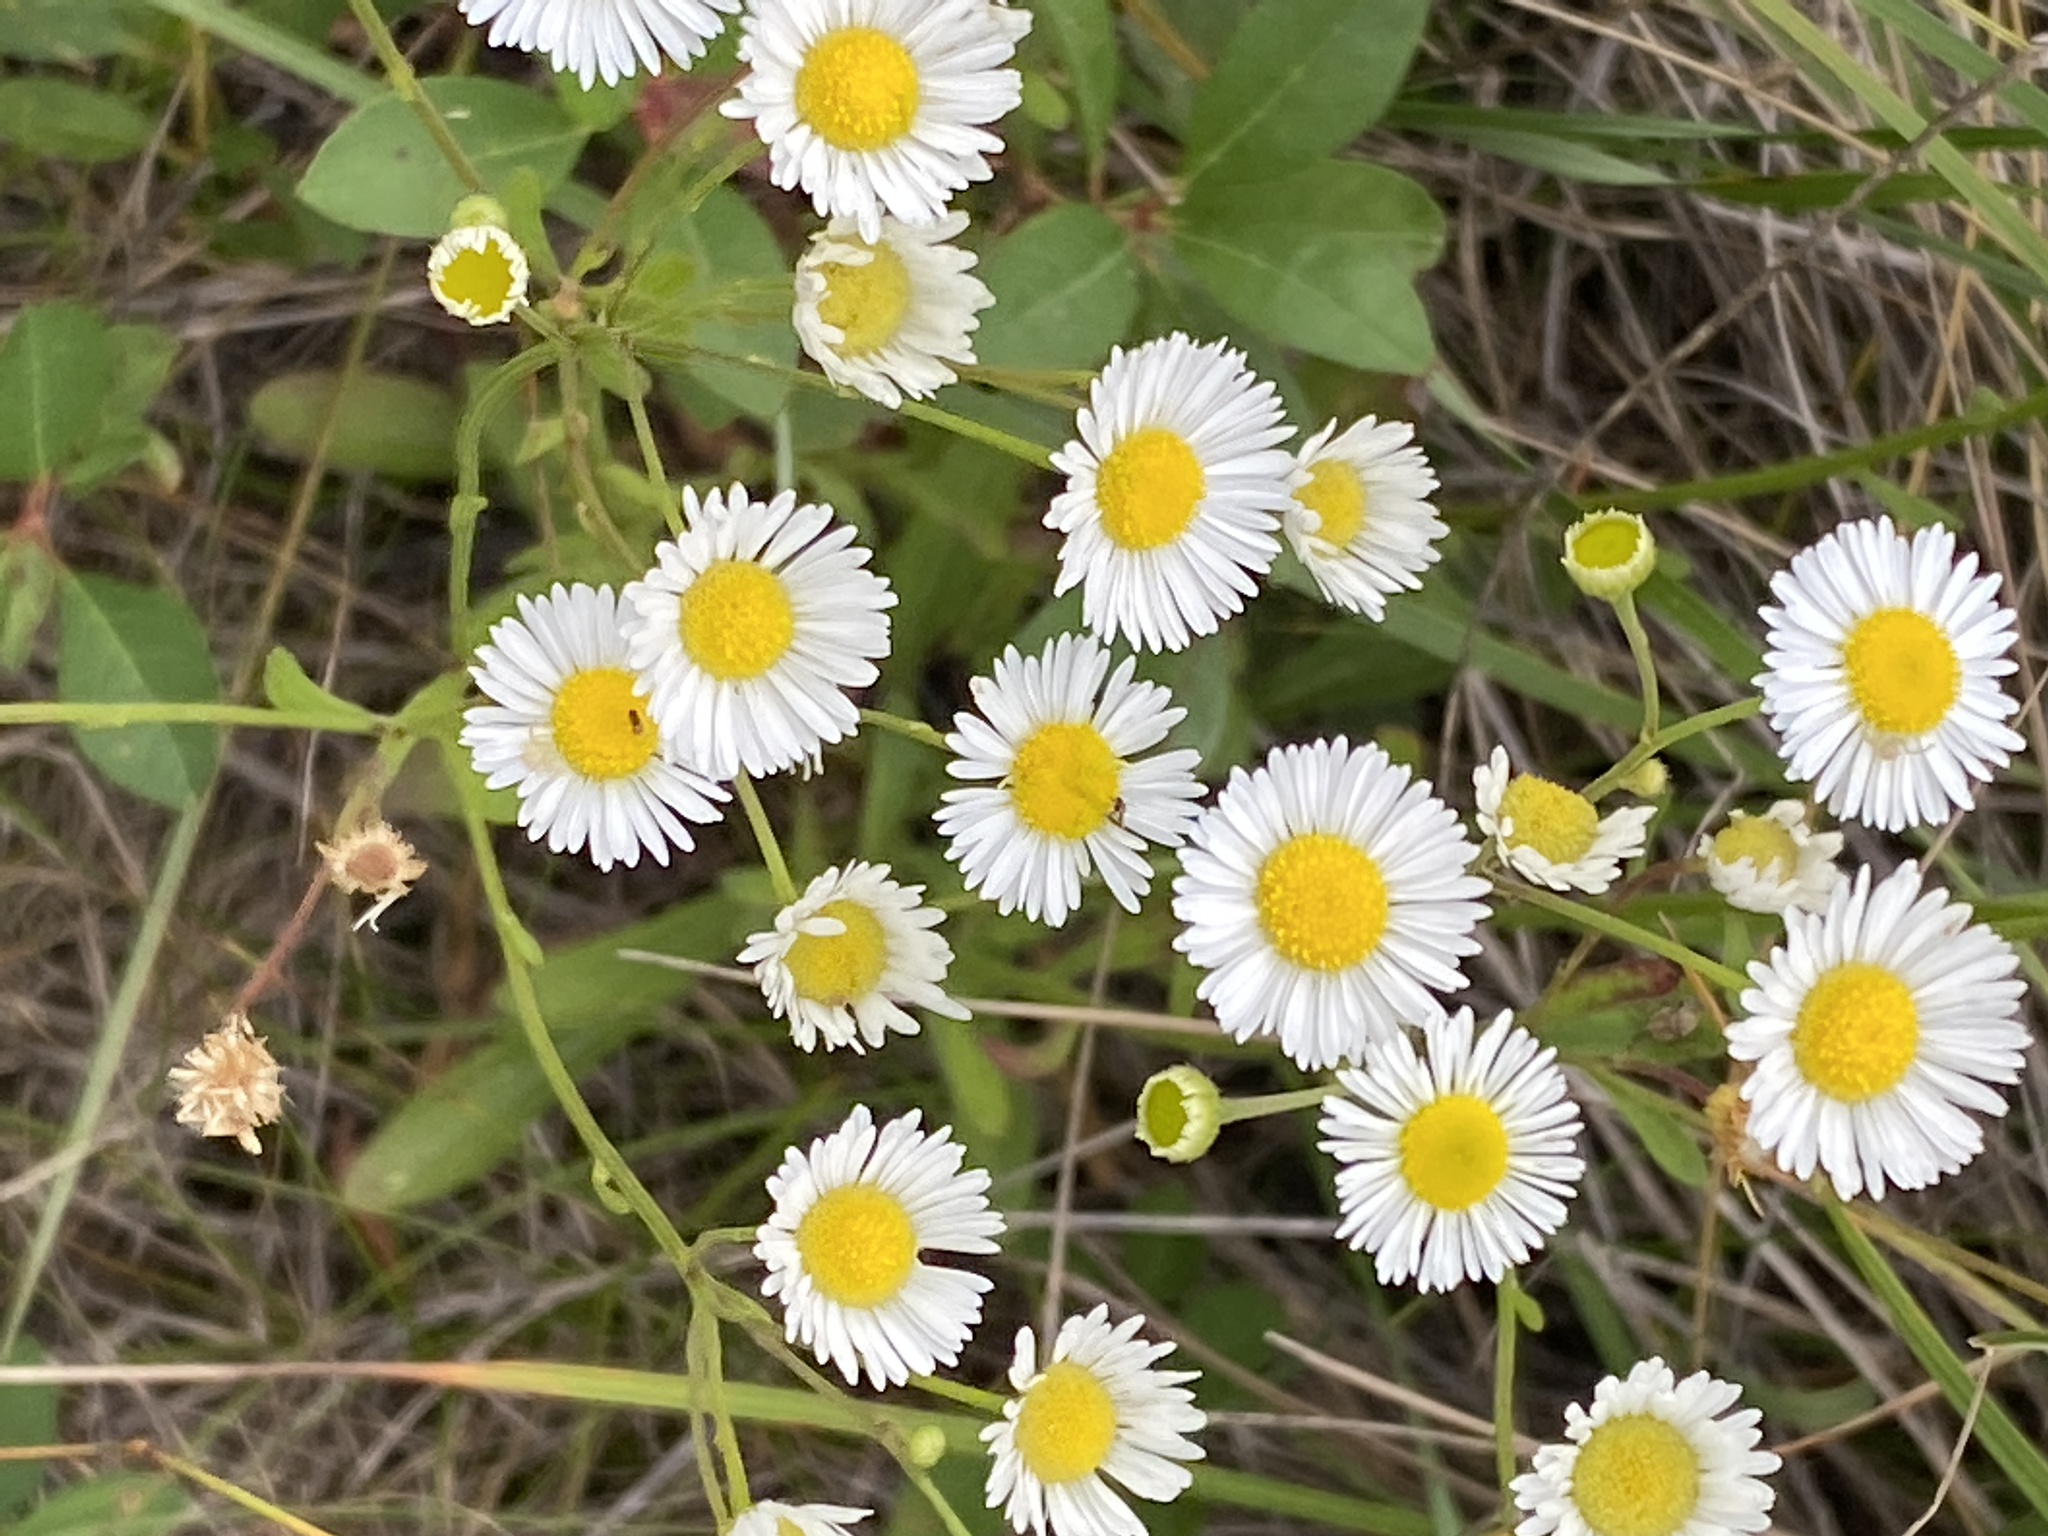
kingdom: Plantae
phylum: Tracheophyta
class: Magnoliopsida
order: Asterales
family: Asteraceae
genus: Erigeron
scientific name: Erigeron strigosus
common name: Common eastern fleabane
